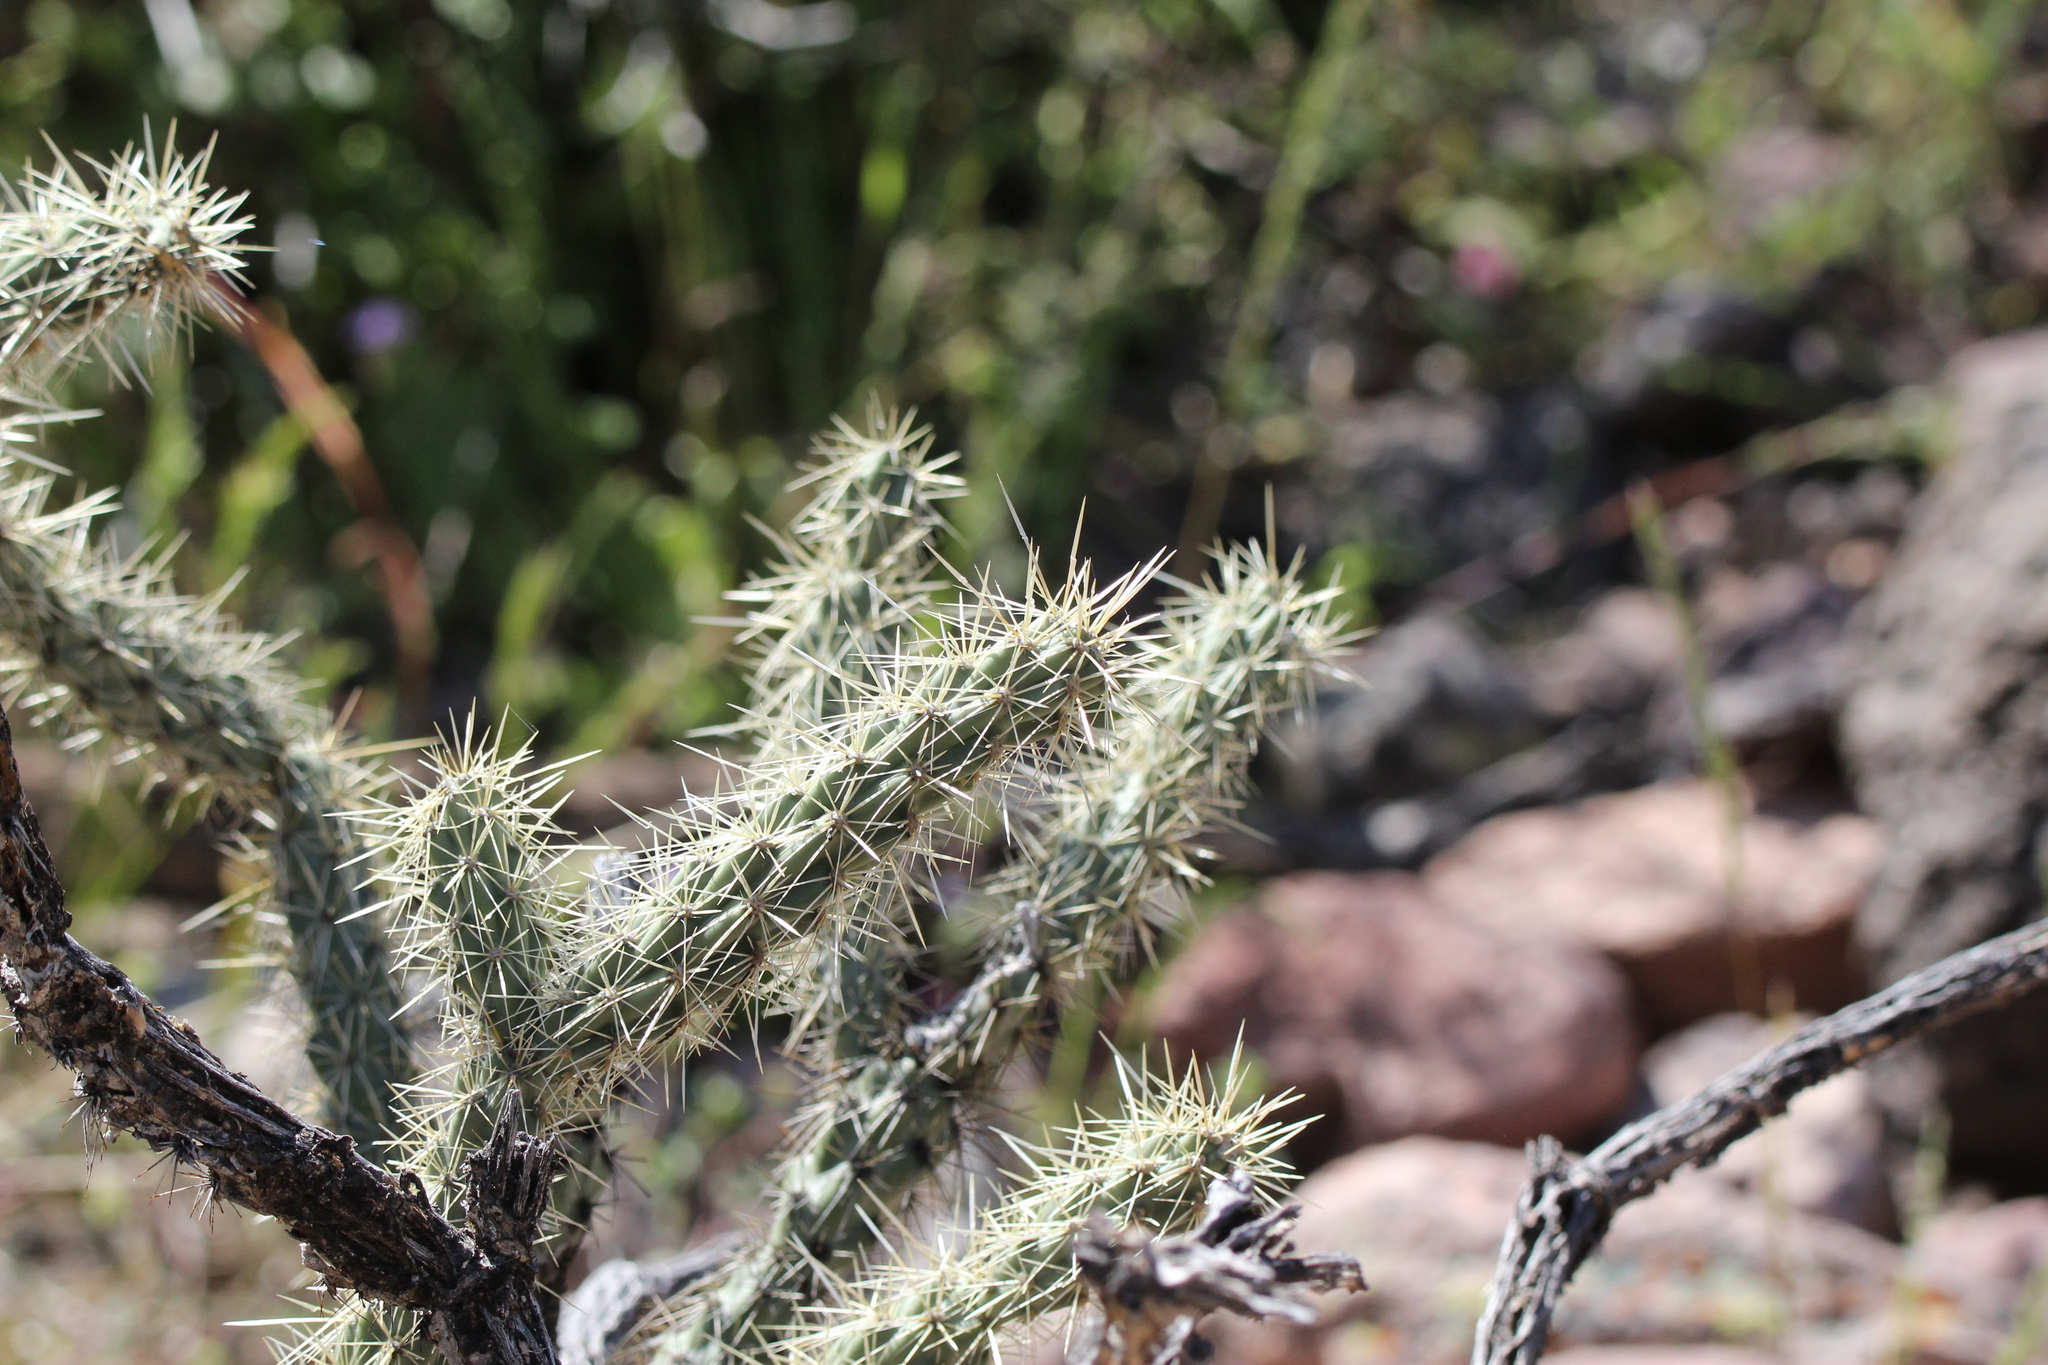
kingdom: Plantae
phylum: Tracheophyta
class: Magnoliopsida
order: Caryophyllales
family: Cactaceae
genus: Cylindropuntia
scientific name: Cylindropuntia acanthocarpa
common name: Buckhorn cholla
